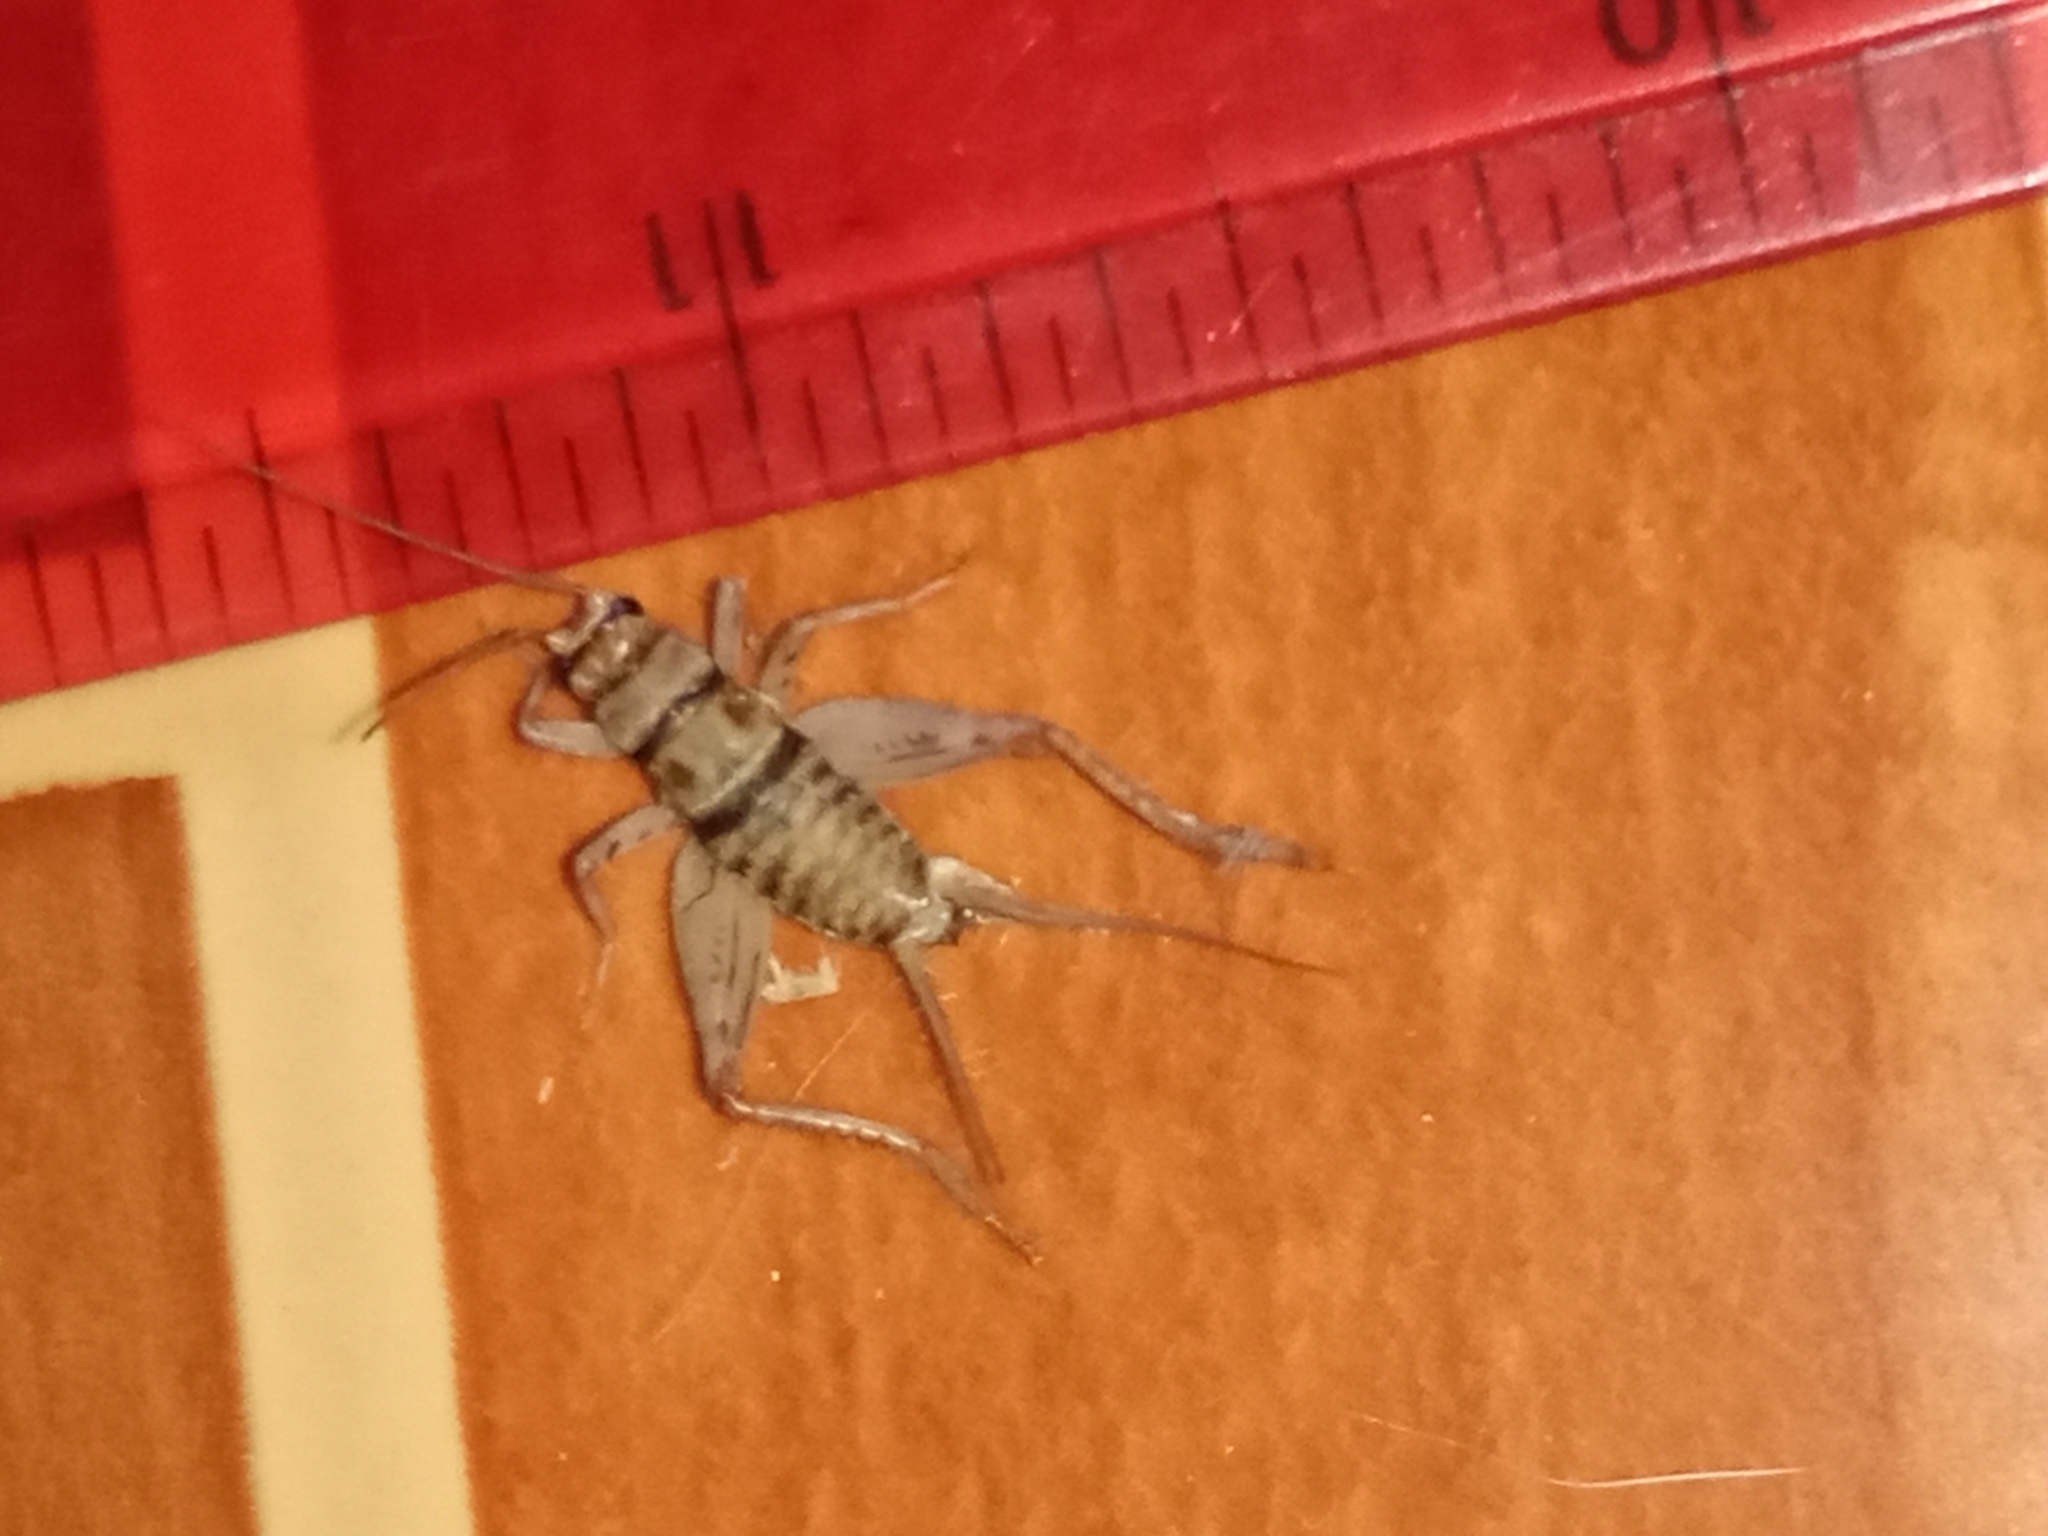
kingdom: Animalia
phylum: Arthropoda
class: Insecta
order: Orthoptera
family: Gryllidae
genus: Gryllodes
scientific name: Gryllodes sigillatus
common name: Tropical house cricket
